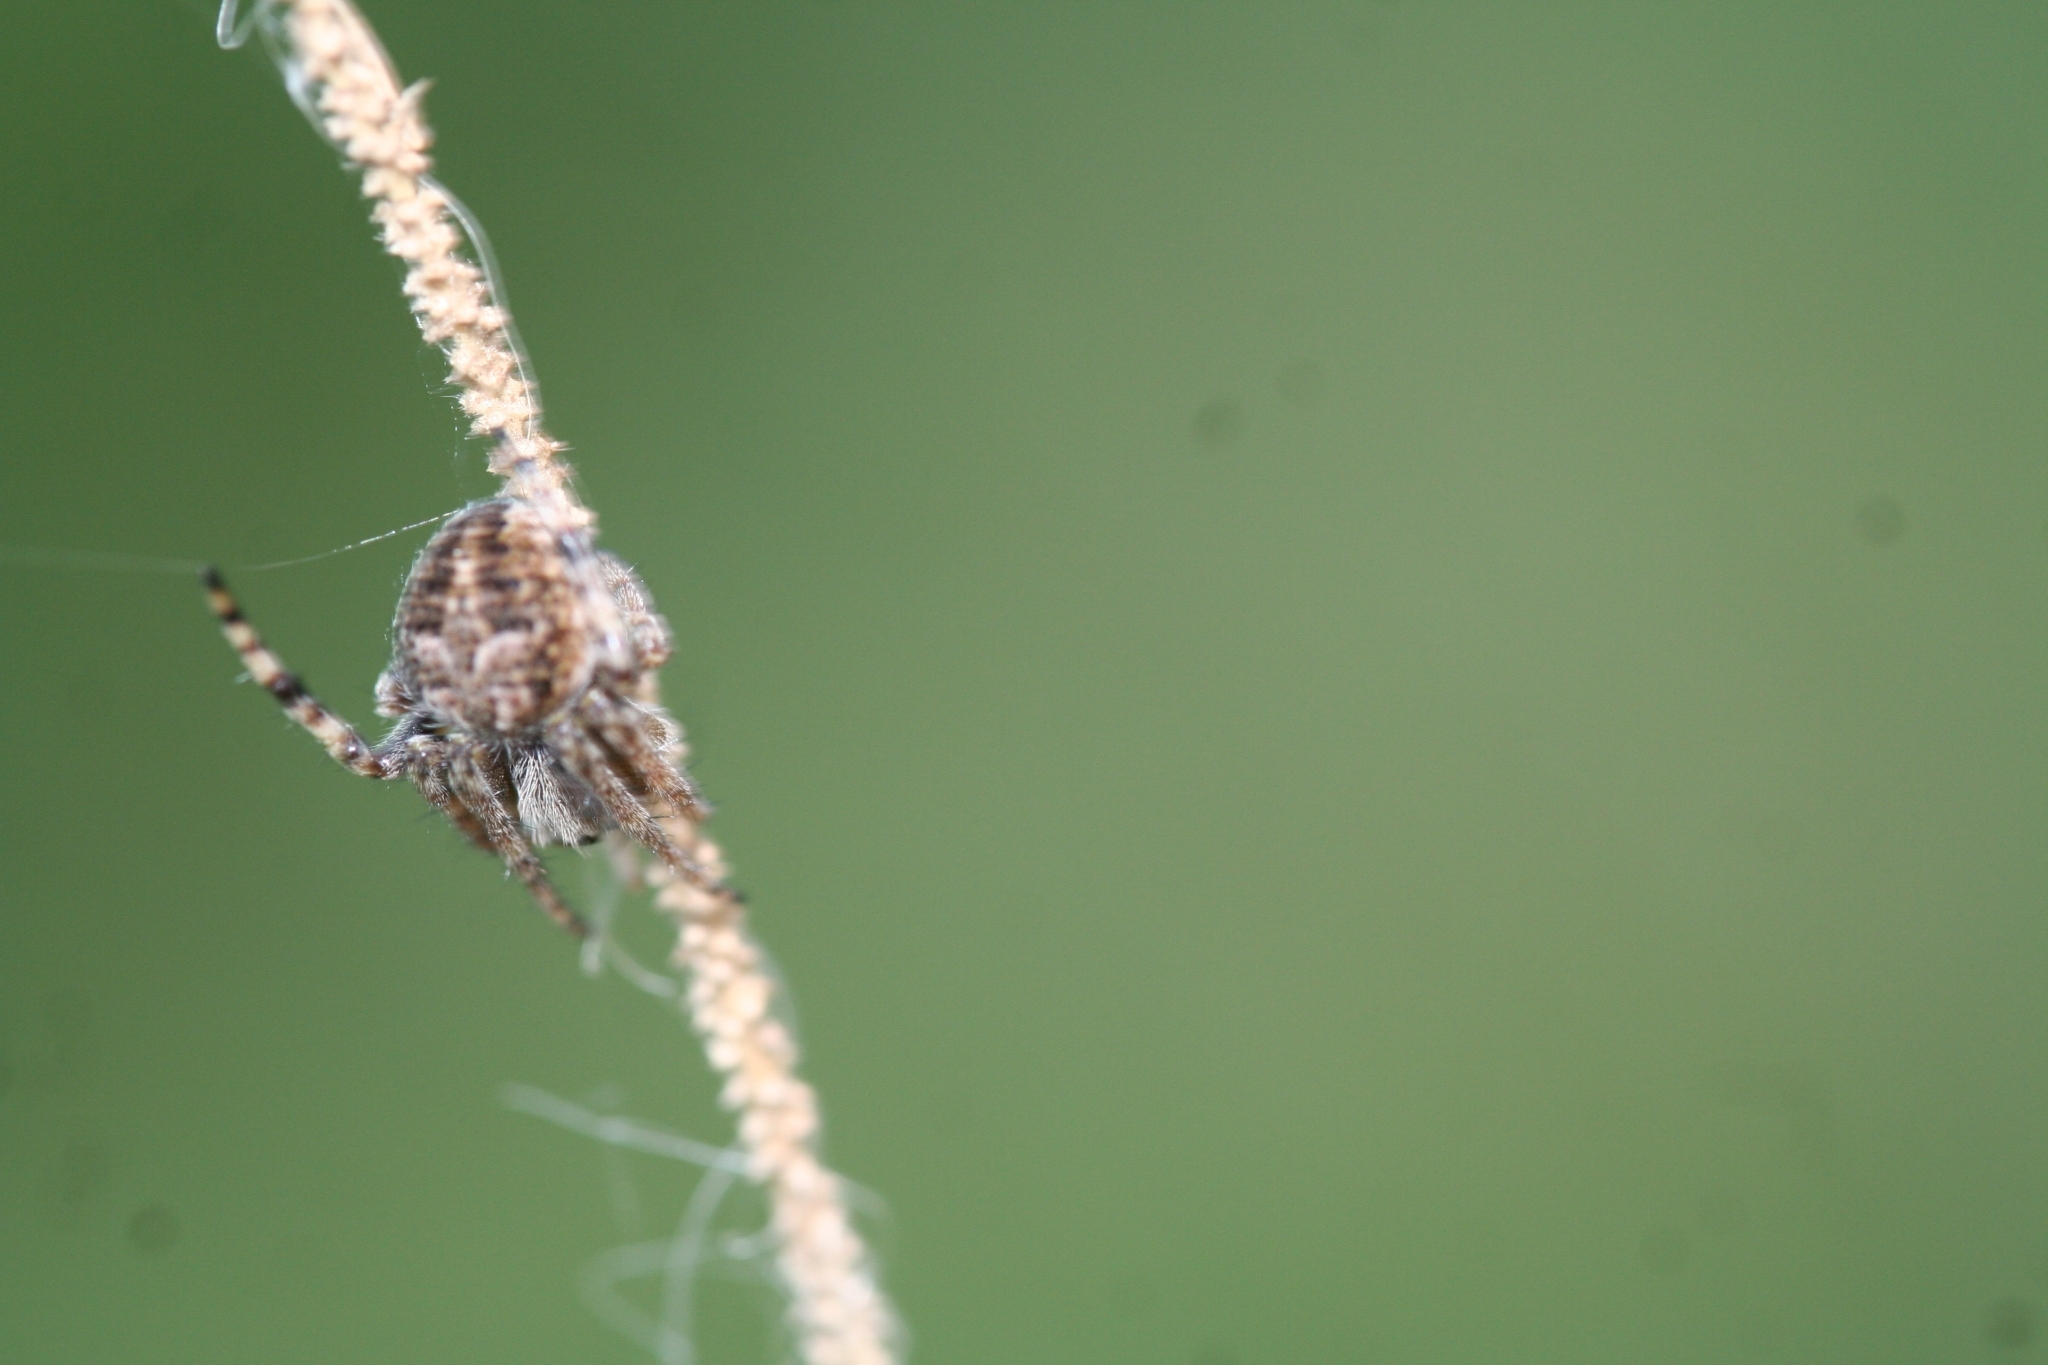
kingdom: Animalia
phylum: Arthropoda
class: Arachnida
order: Araneae
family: Araneidae
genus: Agalenatea
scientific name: Agalenatea redii
